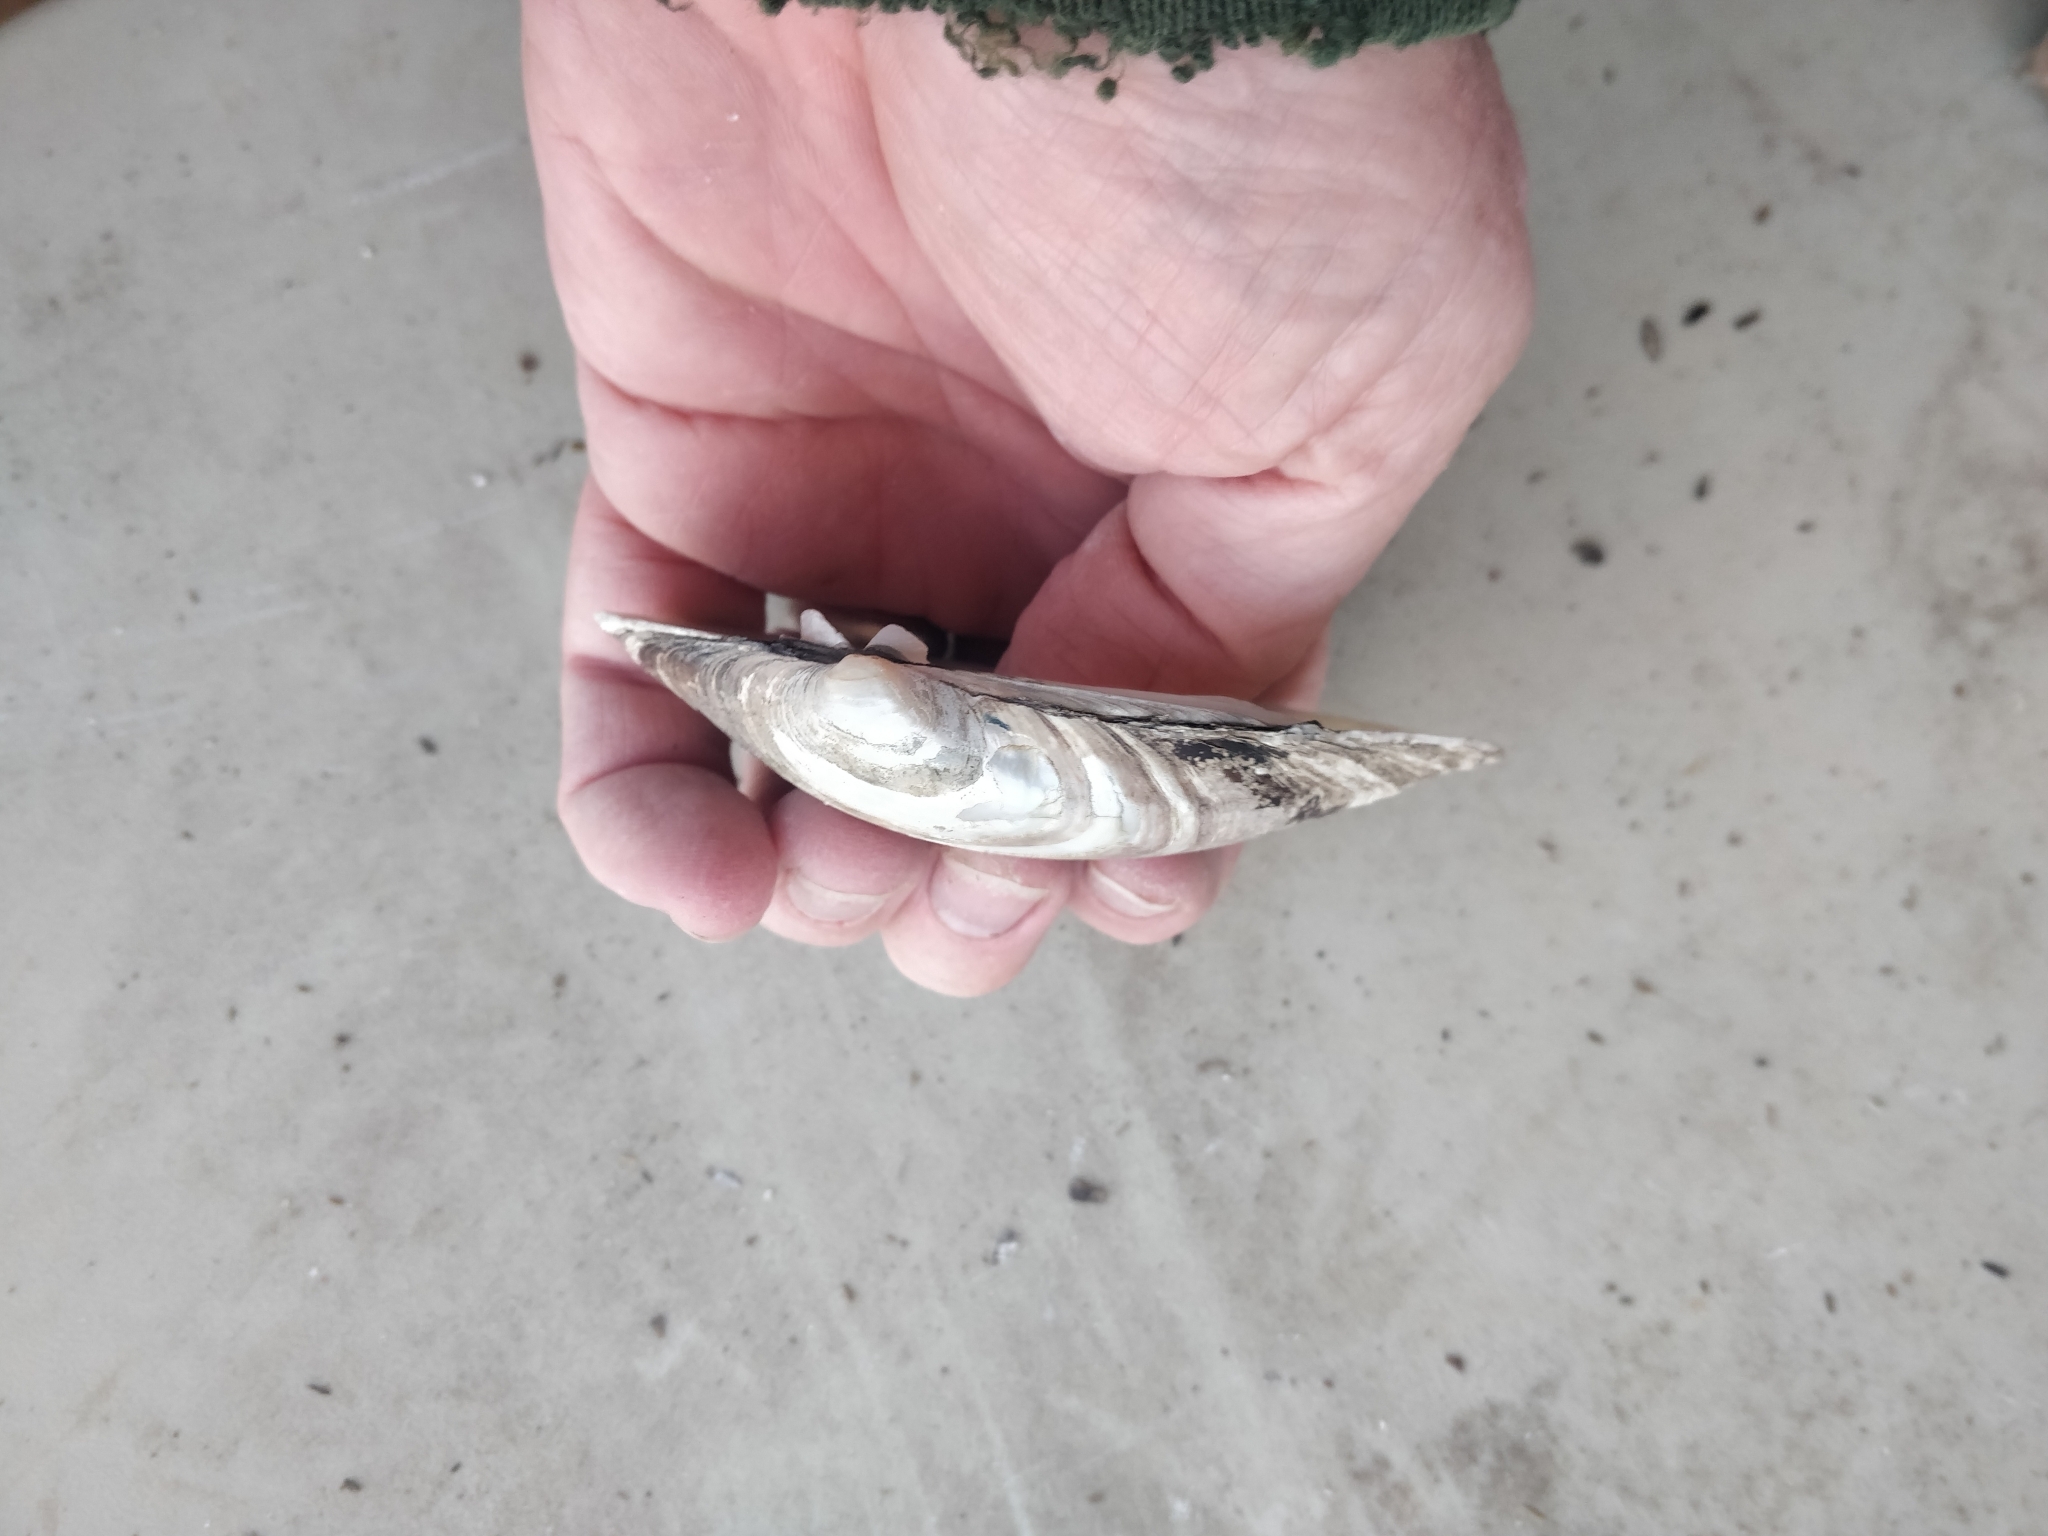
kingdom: Animalia
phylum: Mollusca
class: Bivalvia
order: Unionida
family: Unionidae
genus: Lampsilis
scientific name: Lampsilis cardium
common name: Plain pocketbook
